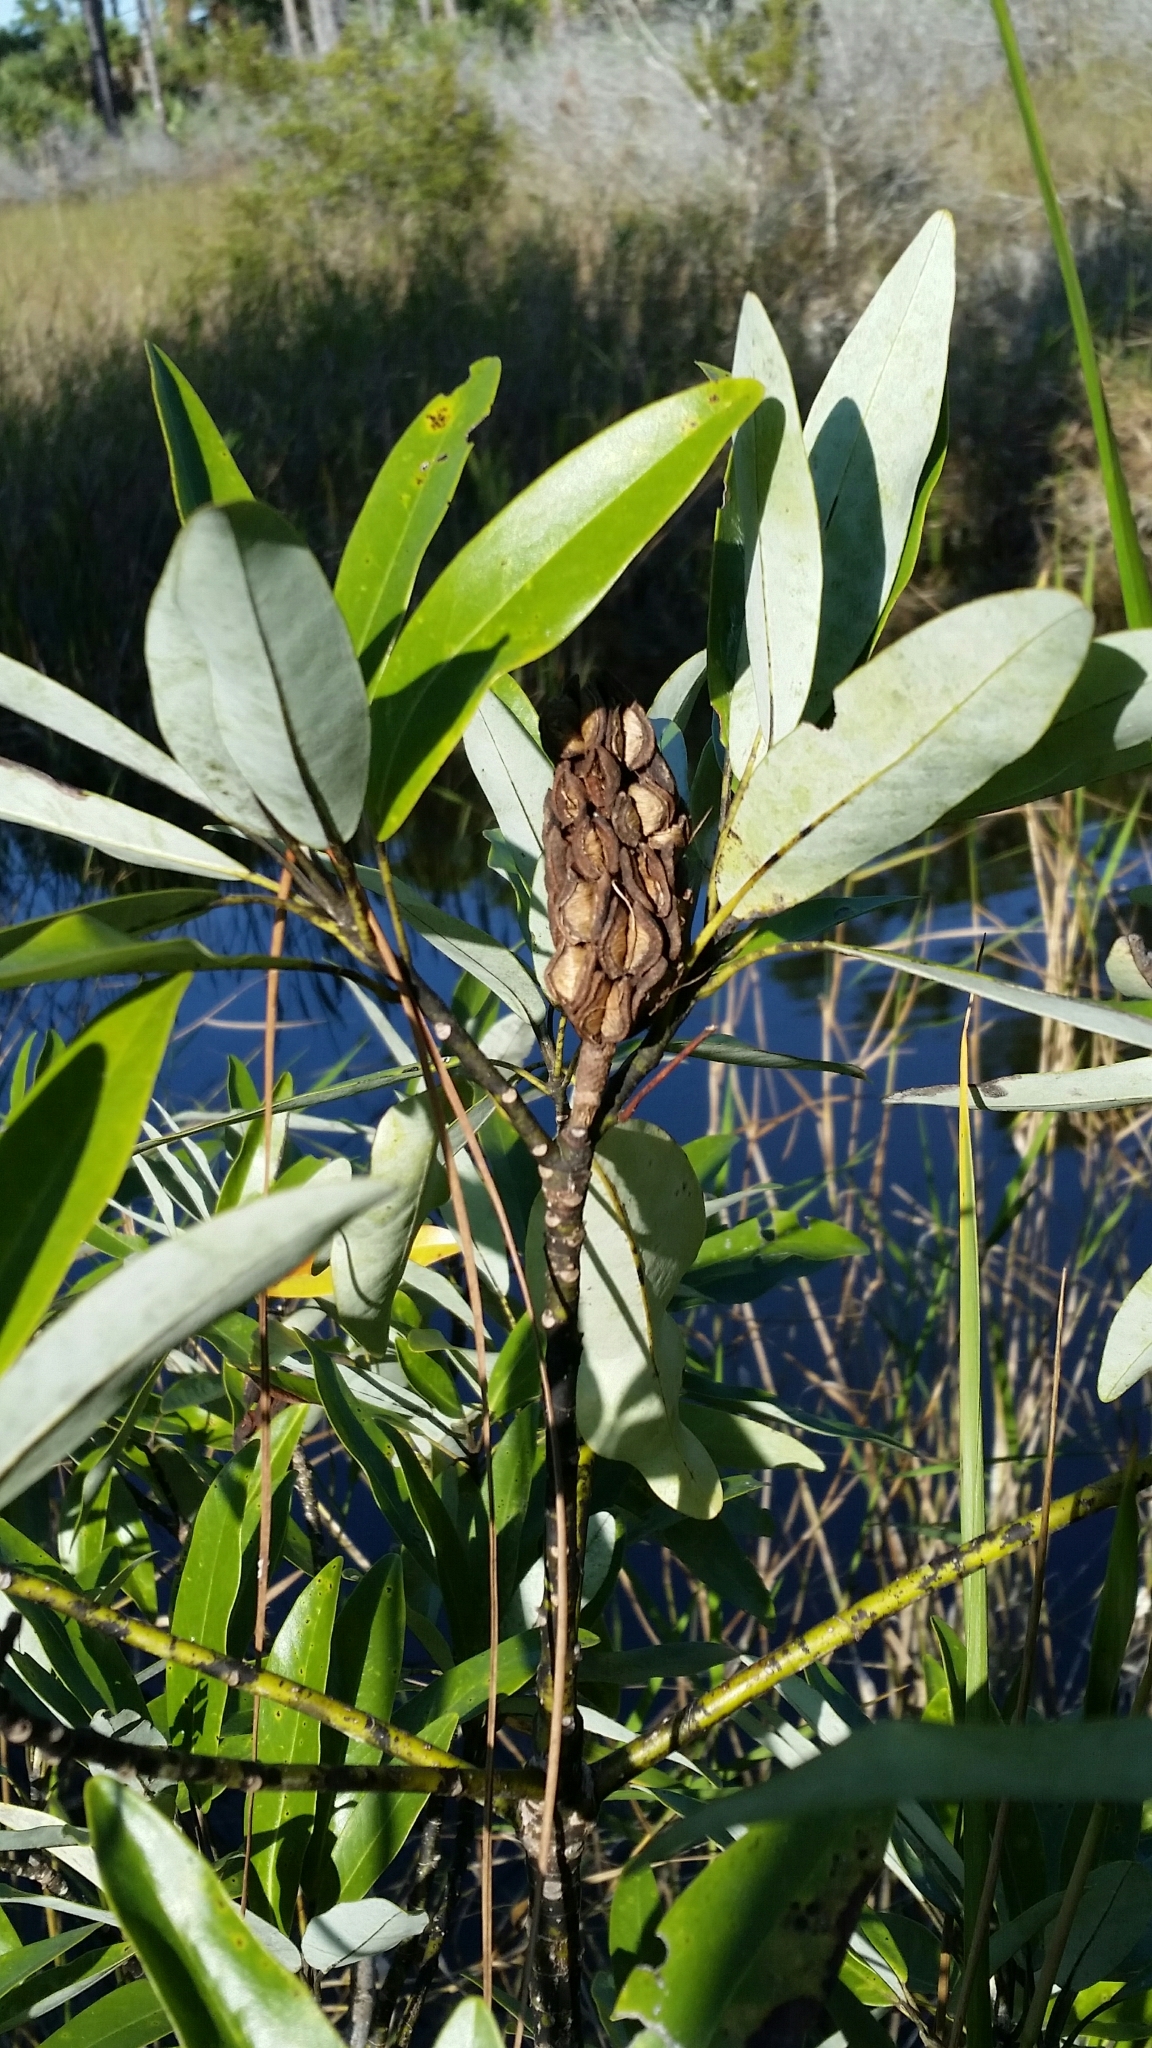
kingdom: Plantae
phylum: Tracheophyta
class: Magnoliopsida
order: Magnoliales
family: Magnoliaceae
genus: Magnolia
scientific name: Magnolia virginiana
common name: Swamp bay
